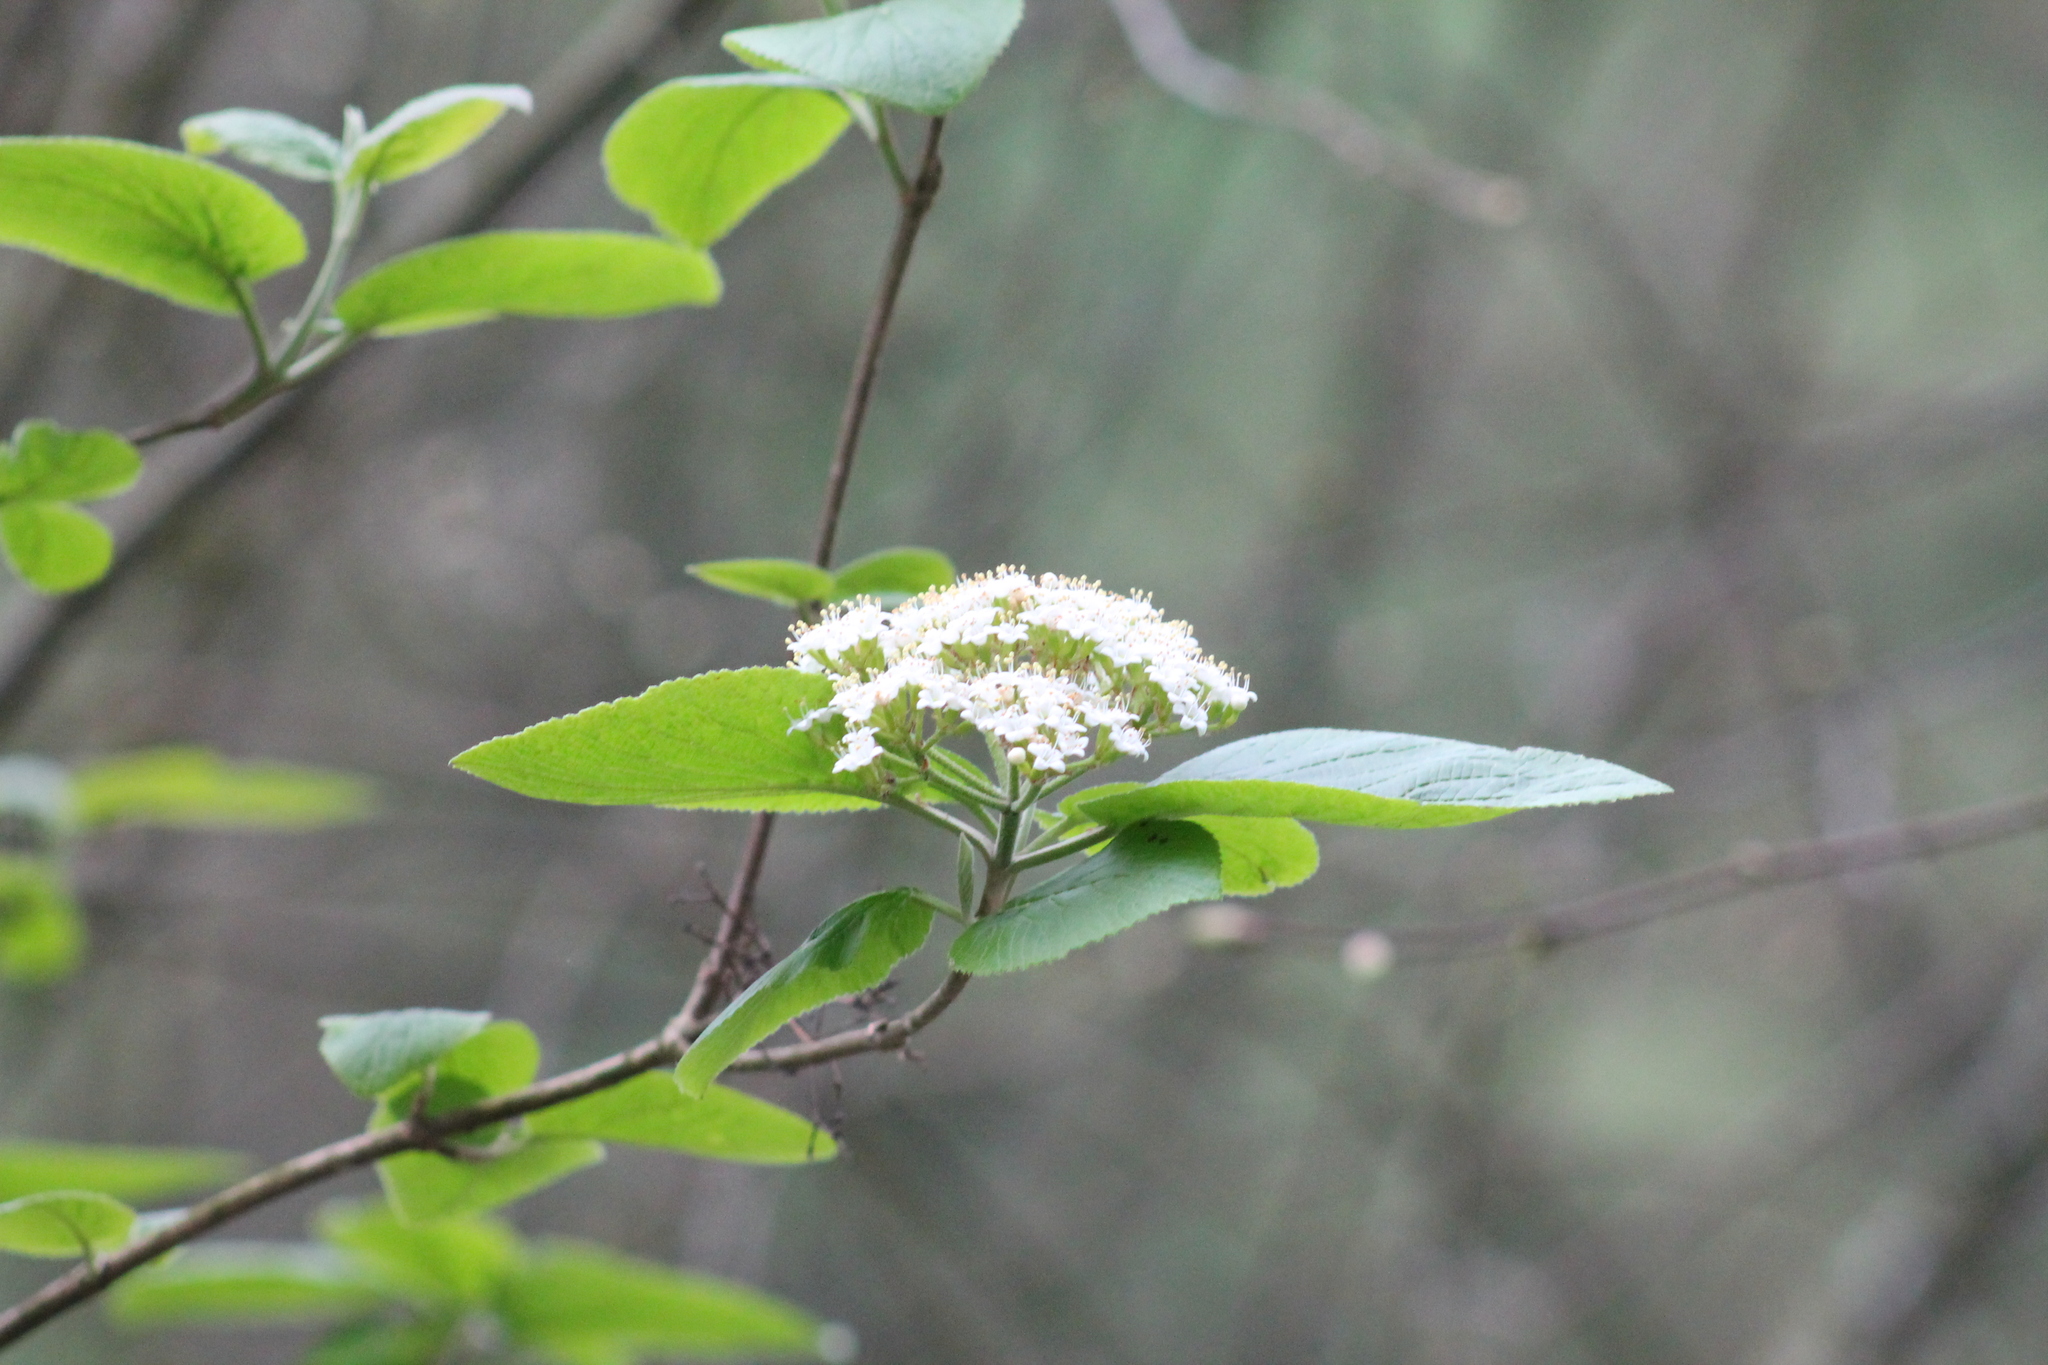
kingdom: Plantae
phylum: Tracheophyta
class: Magnoliopsida
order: Dipsacales
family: Viburnaceae
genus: Viburnum
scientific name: Viburnum lantana
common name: Wayfaring tree
